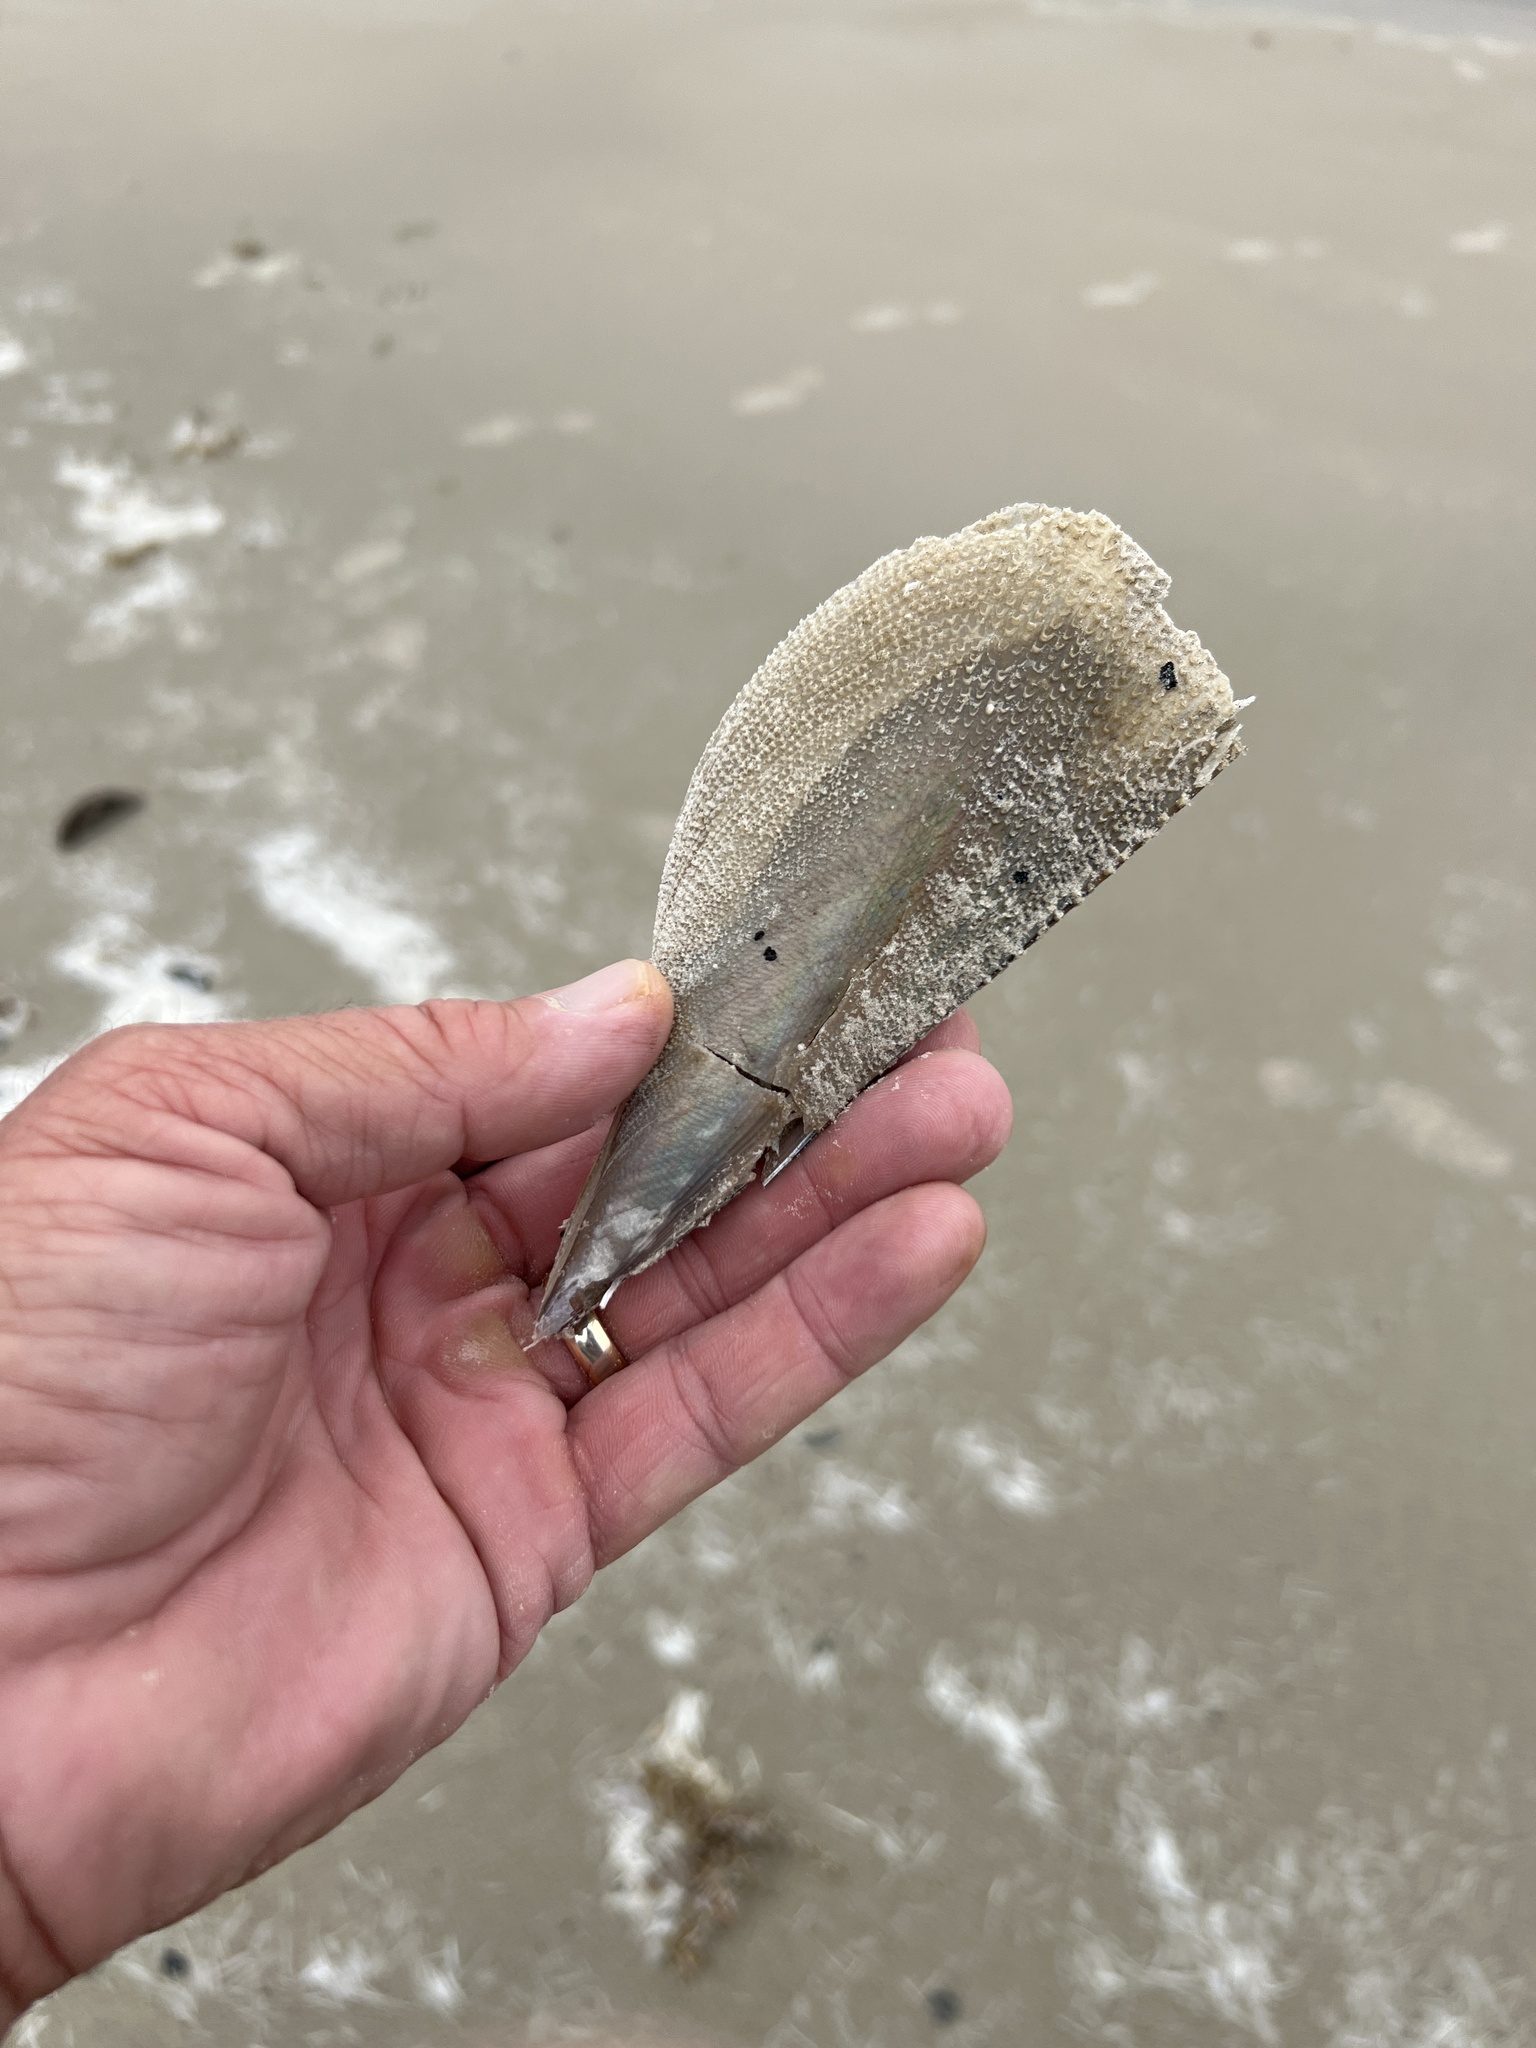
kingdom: Animalia
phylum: Mollusca
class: Bivalvia
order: Ostreida
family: Pinnidae
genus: Atrina
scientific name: Atrina serrata
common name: Saw-toothed penshell
